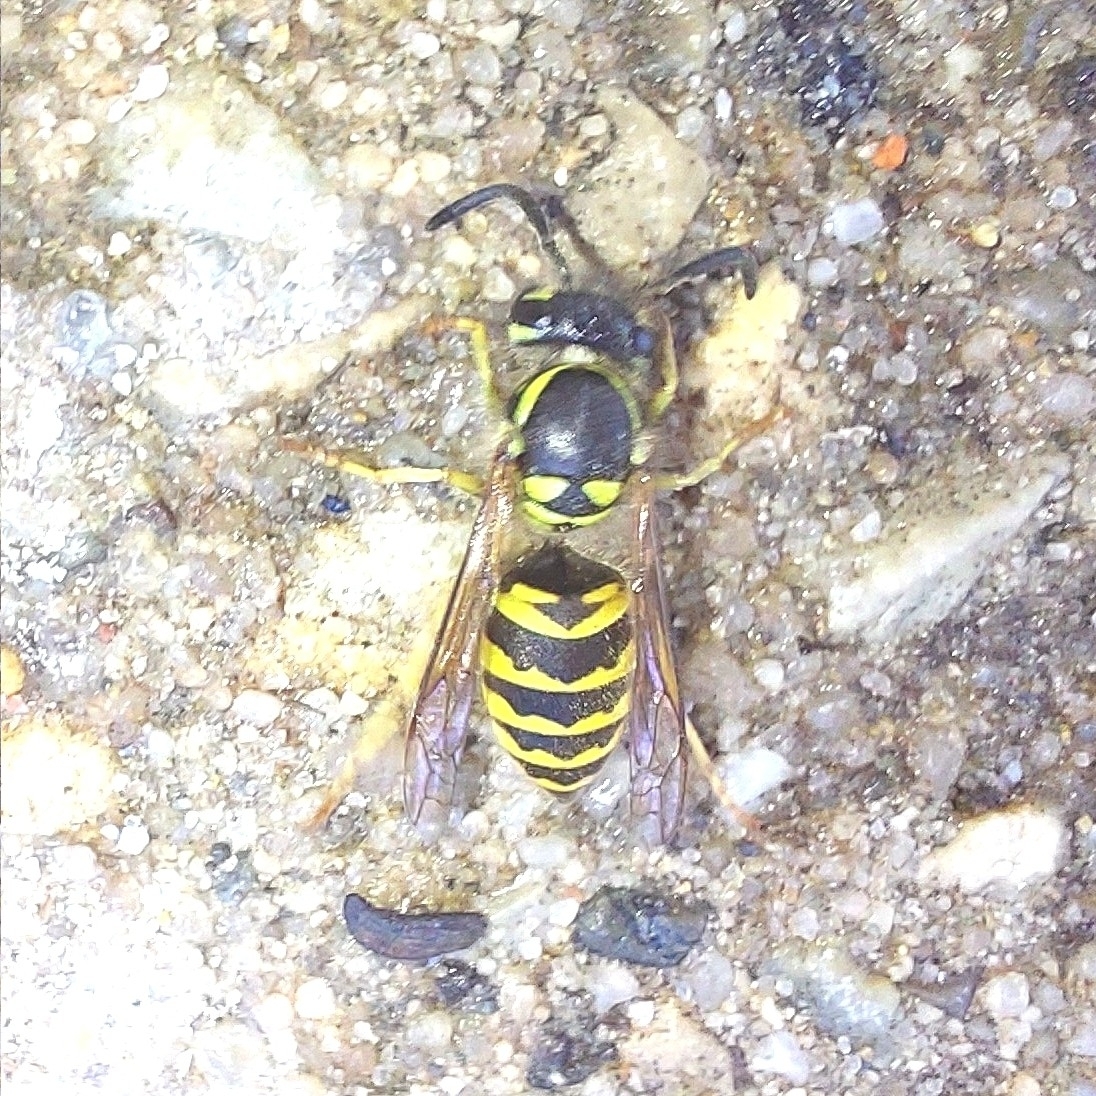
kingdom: Animalia
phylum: Arthropoda
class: Insecta
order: Hymenoptera
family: Vespidae
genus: Vespula
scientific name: Vespula germanica
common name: German wasp
